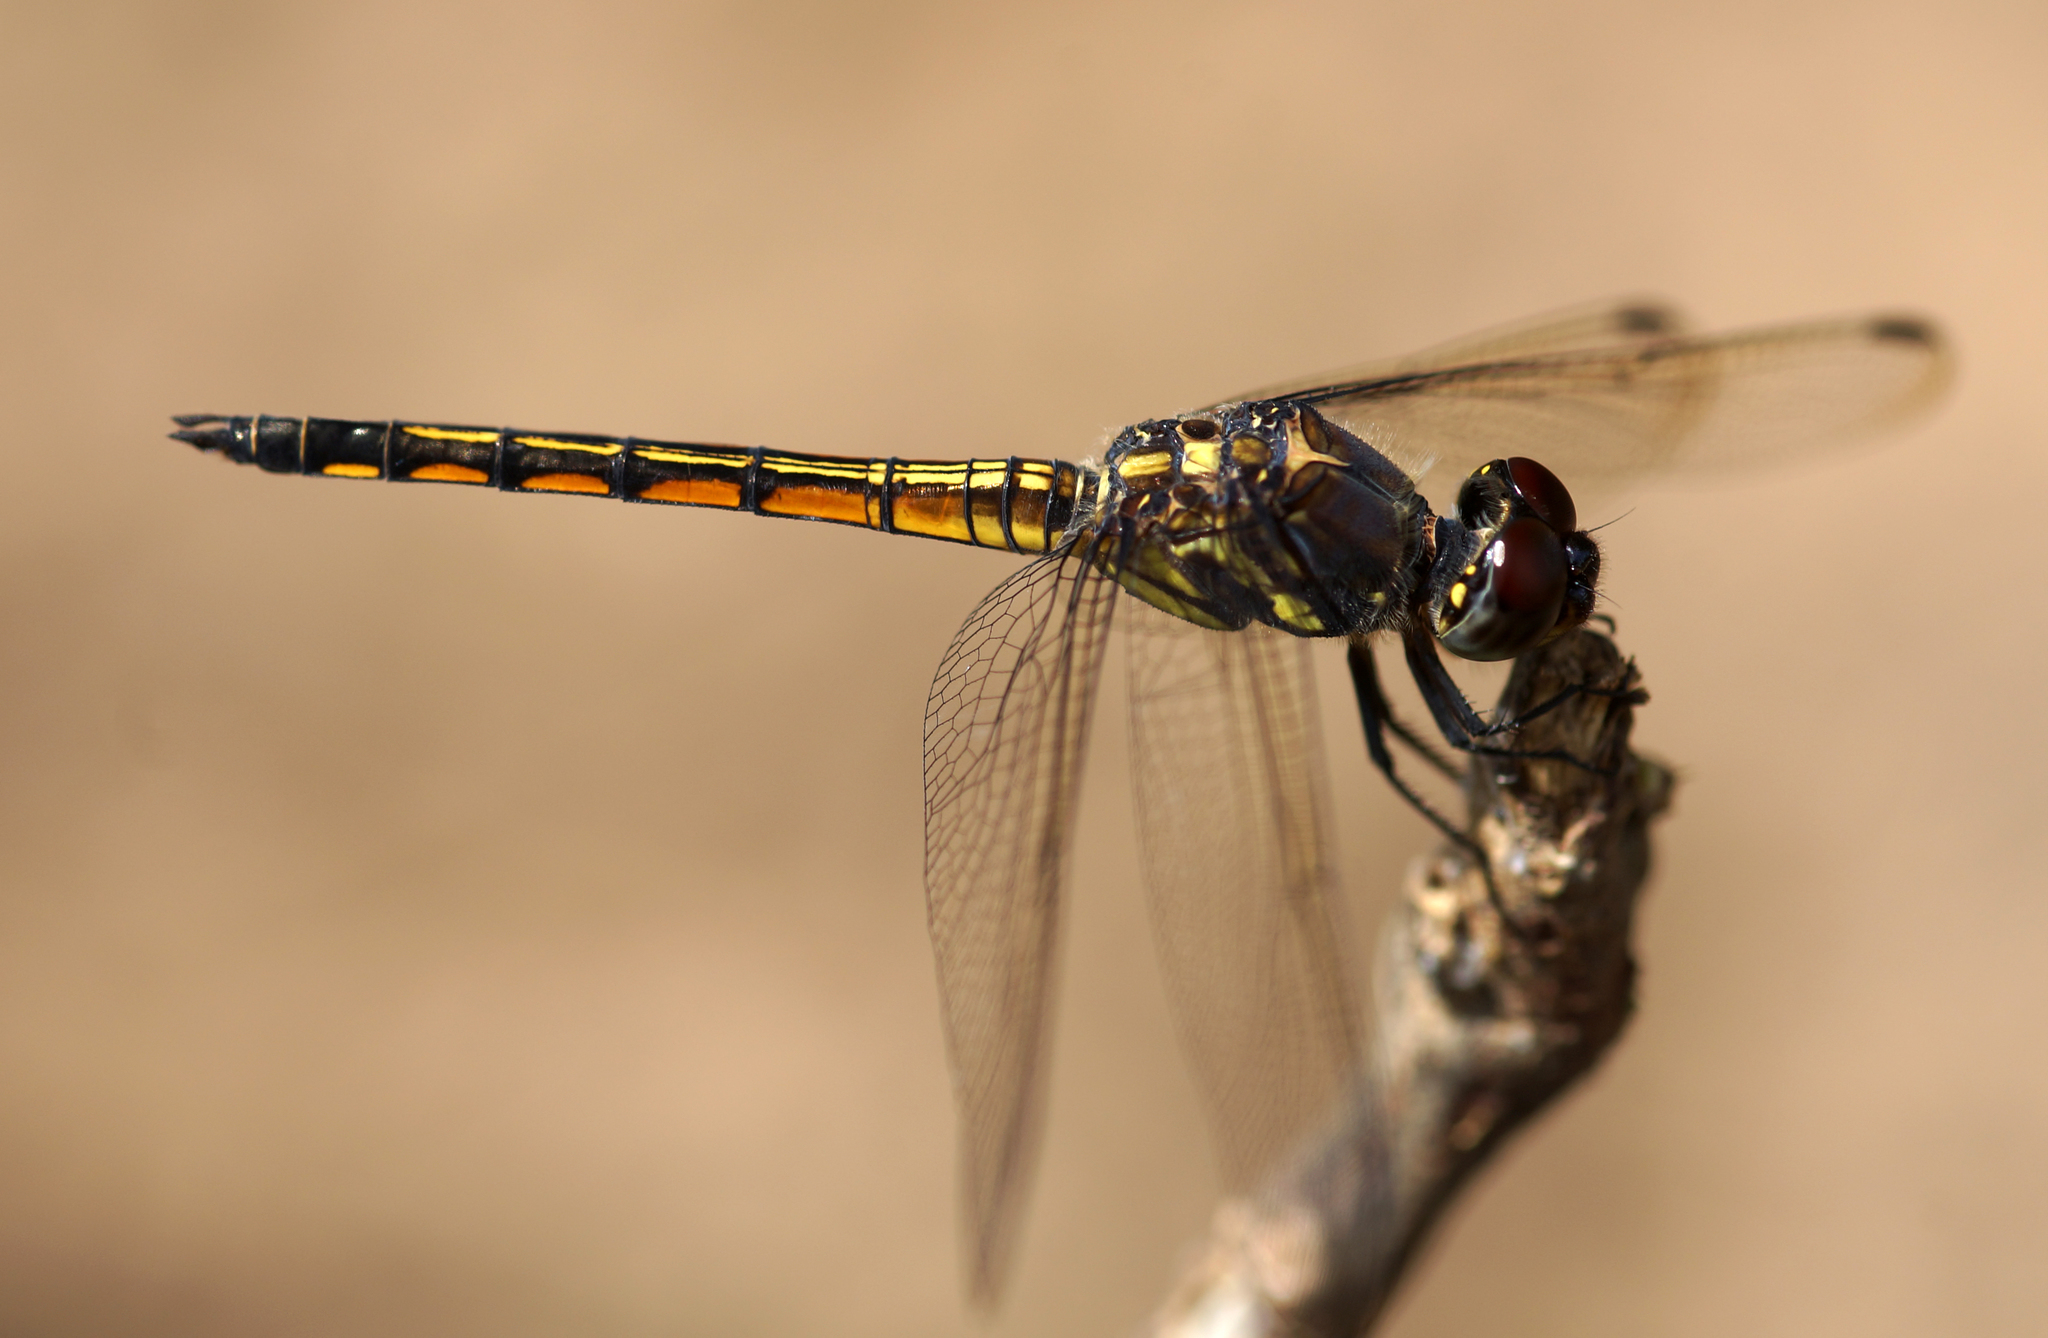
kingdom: Animalia
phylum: Arthropoda
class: Insecta
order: Odonata
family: Libellulidae
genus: Potamarcha
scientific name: Potamarcha congener
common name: Blue chaser
